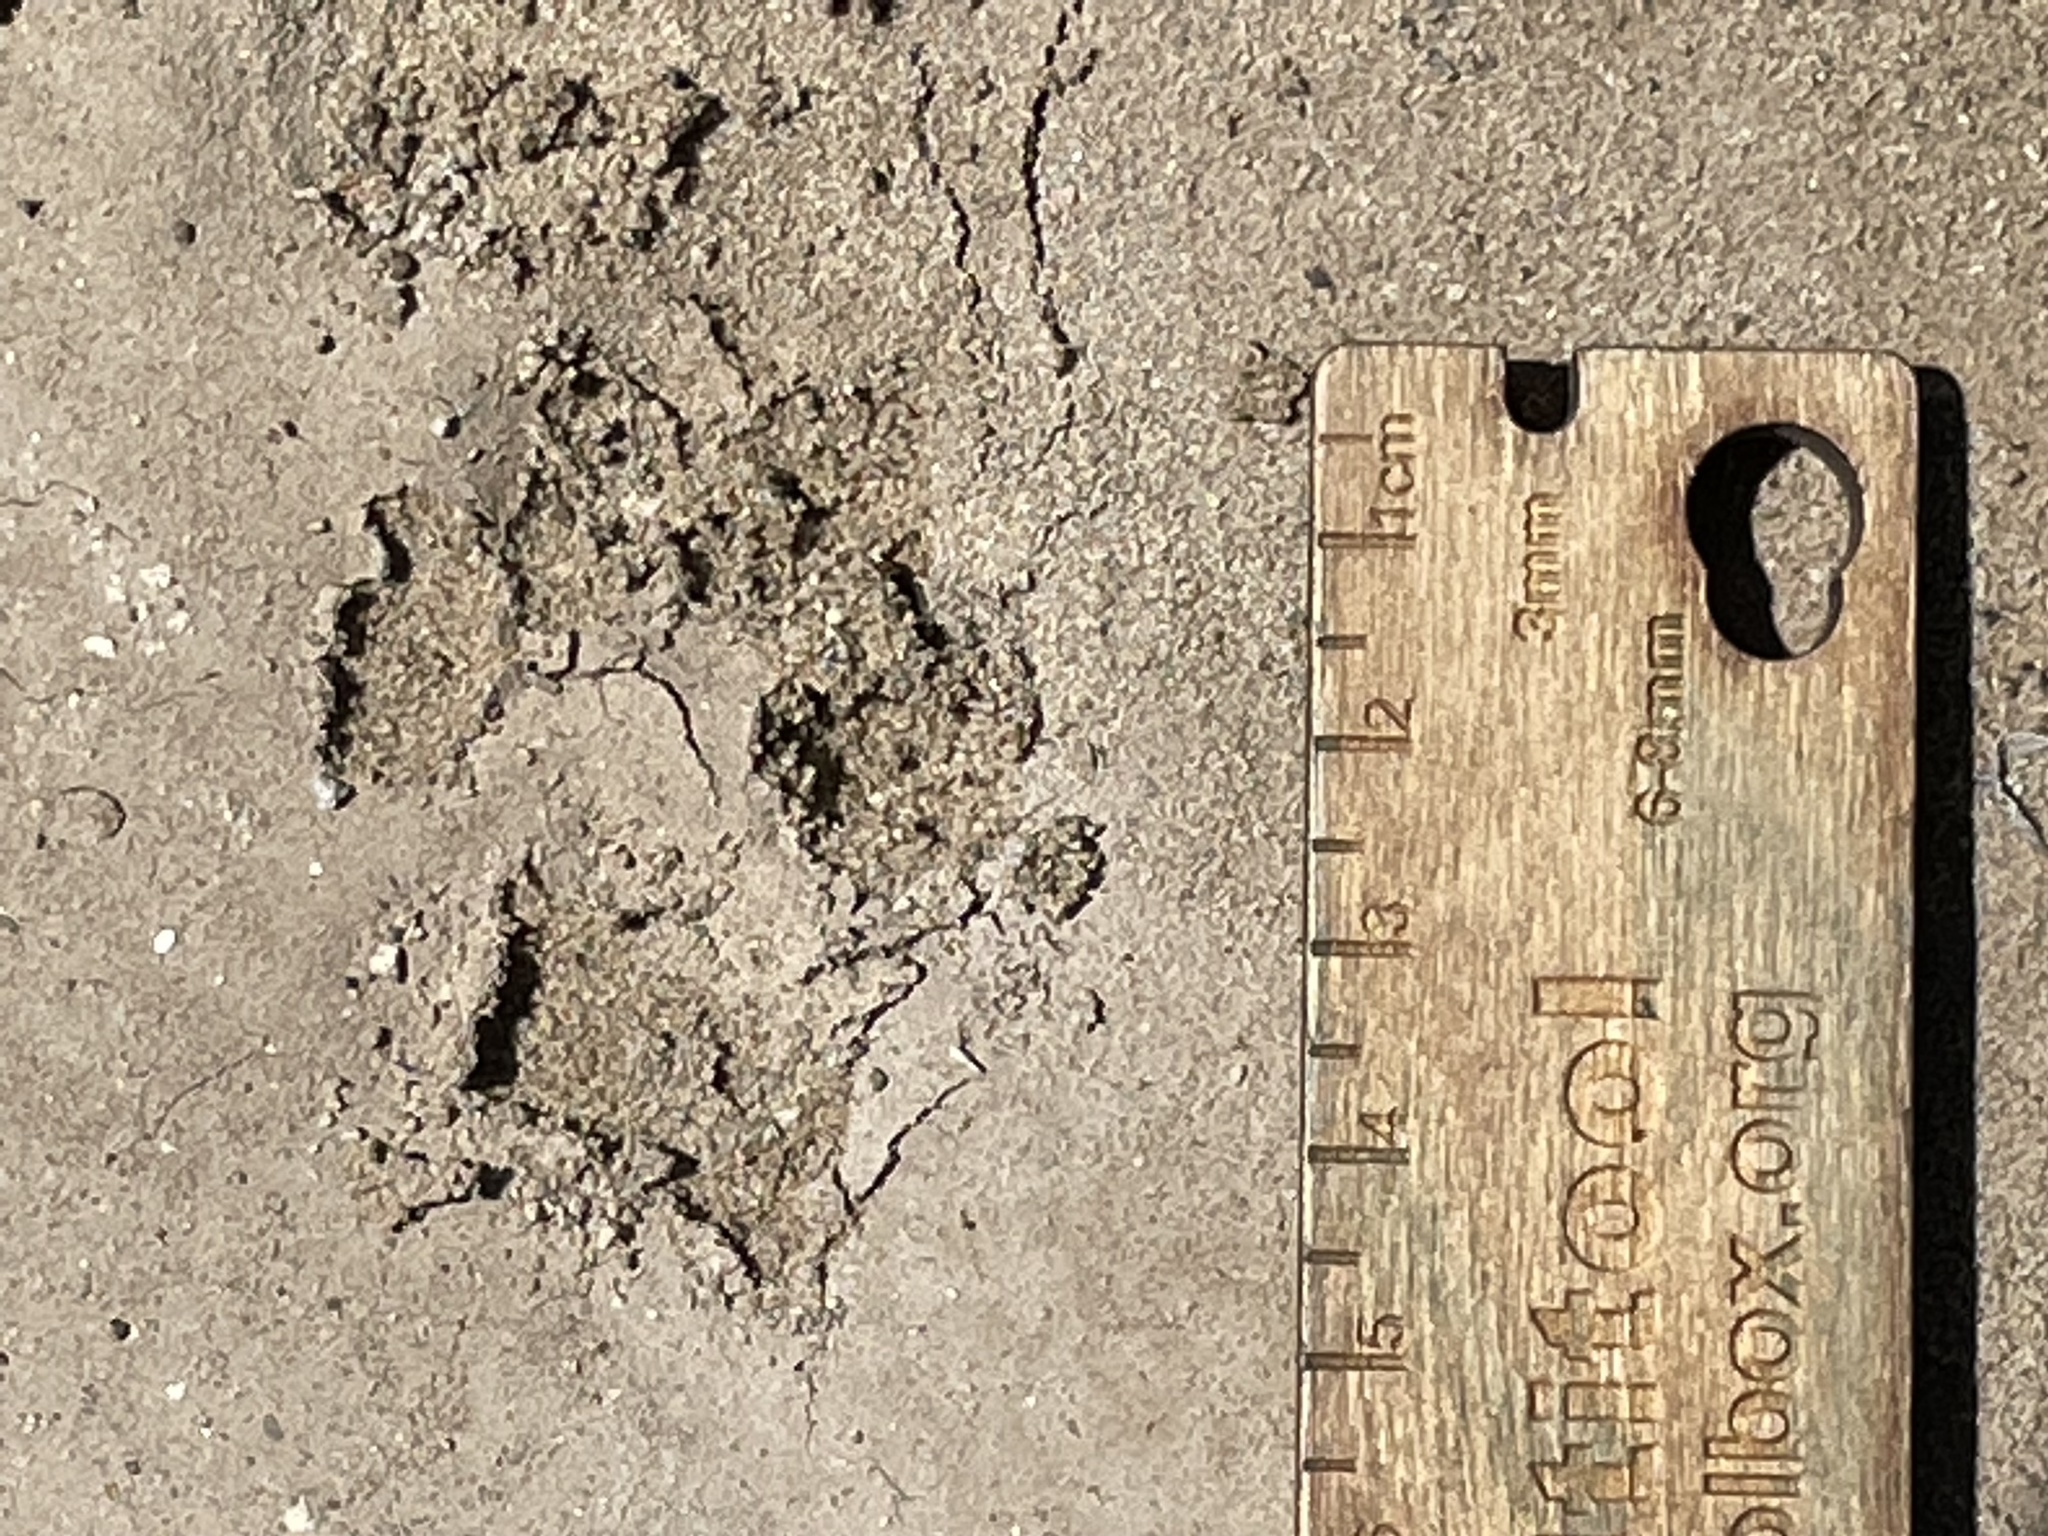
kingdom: Animalia
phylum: Chordata
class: Mammalia
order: Carnivora
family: Canidae
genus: Vulpes
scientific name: Vulpes vulpes
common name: Red fox
